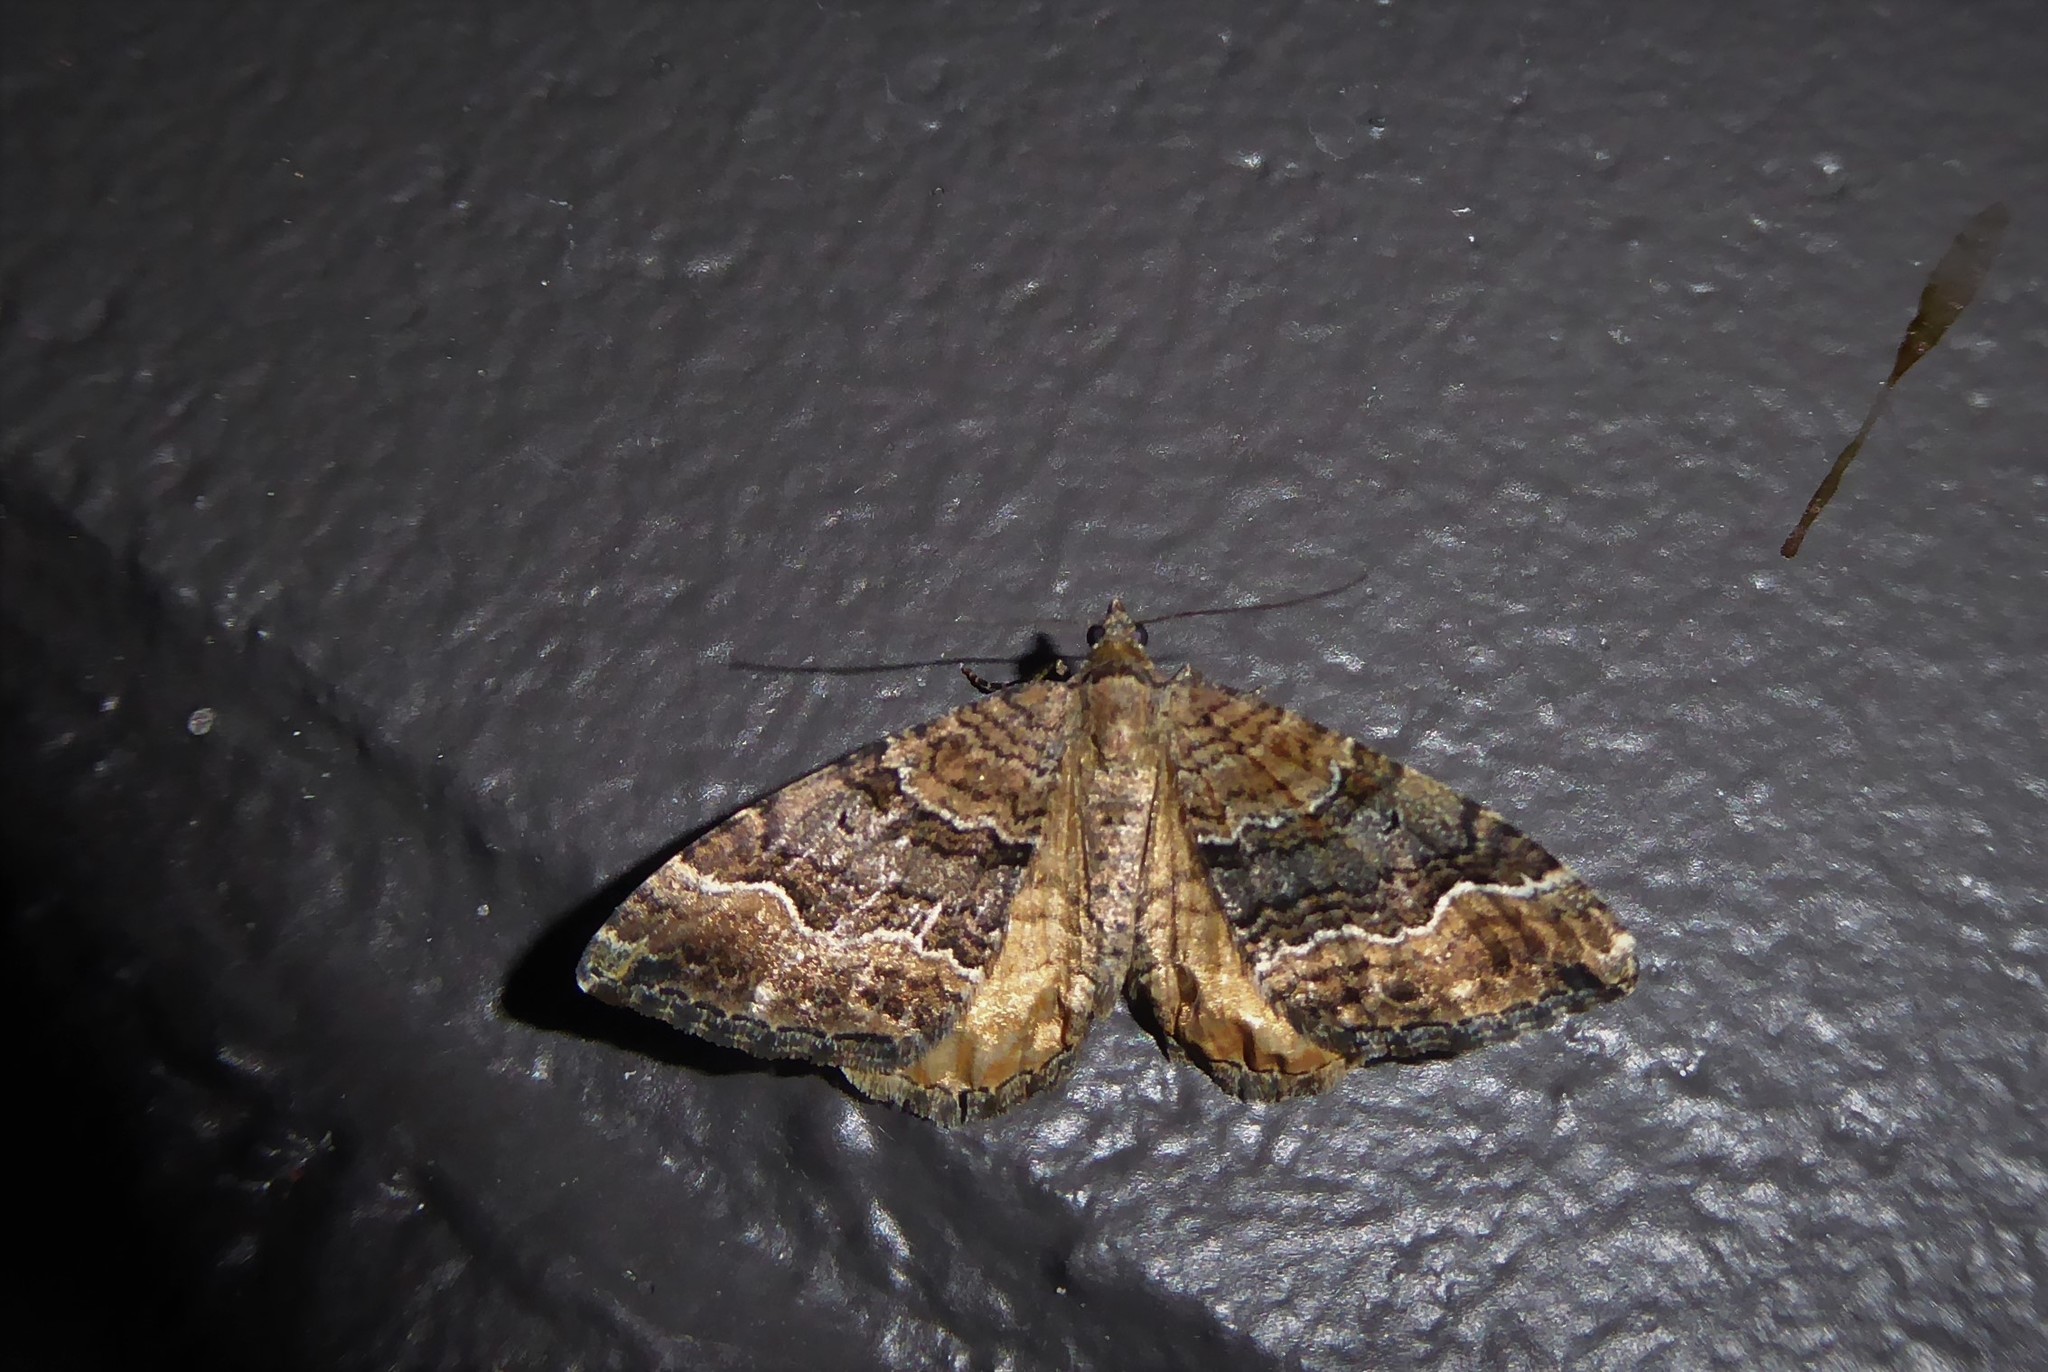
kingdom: Animalia
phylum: Arthropoda
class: Insecta
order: Lepidoptera
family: Geometridae
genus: Hydriomena
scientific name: Hydriomena deltoidata
